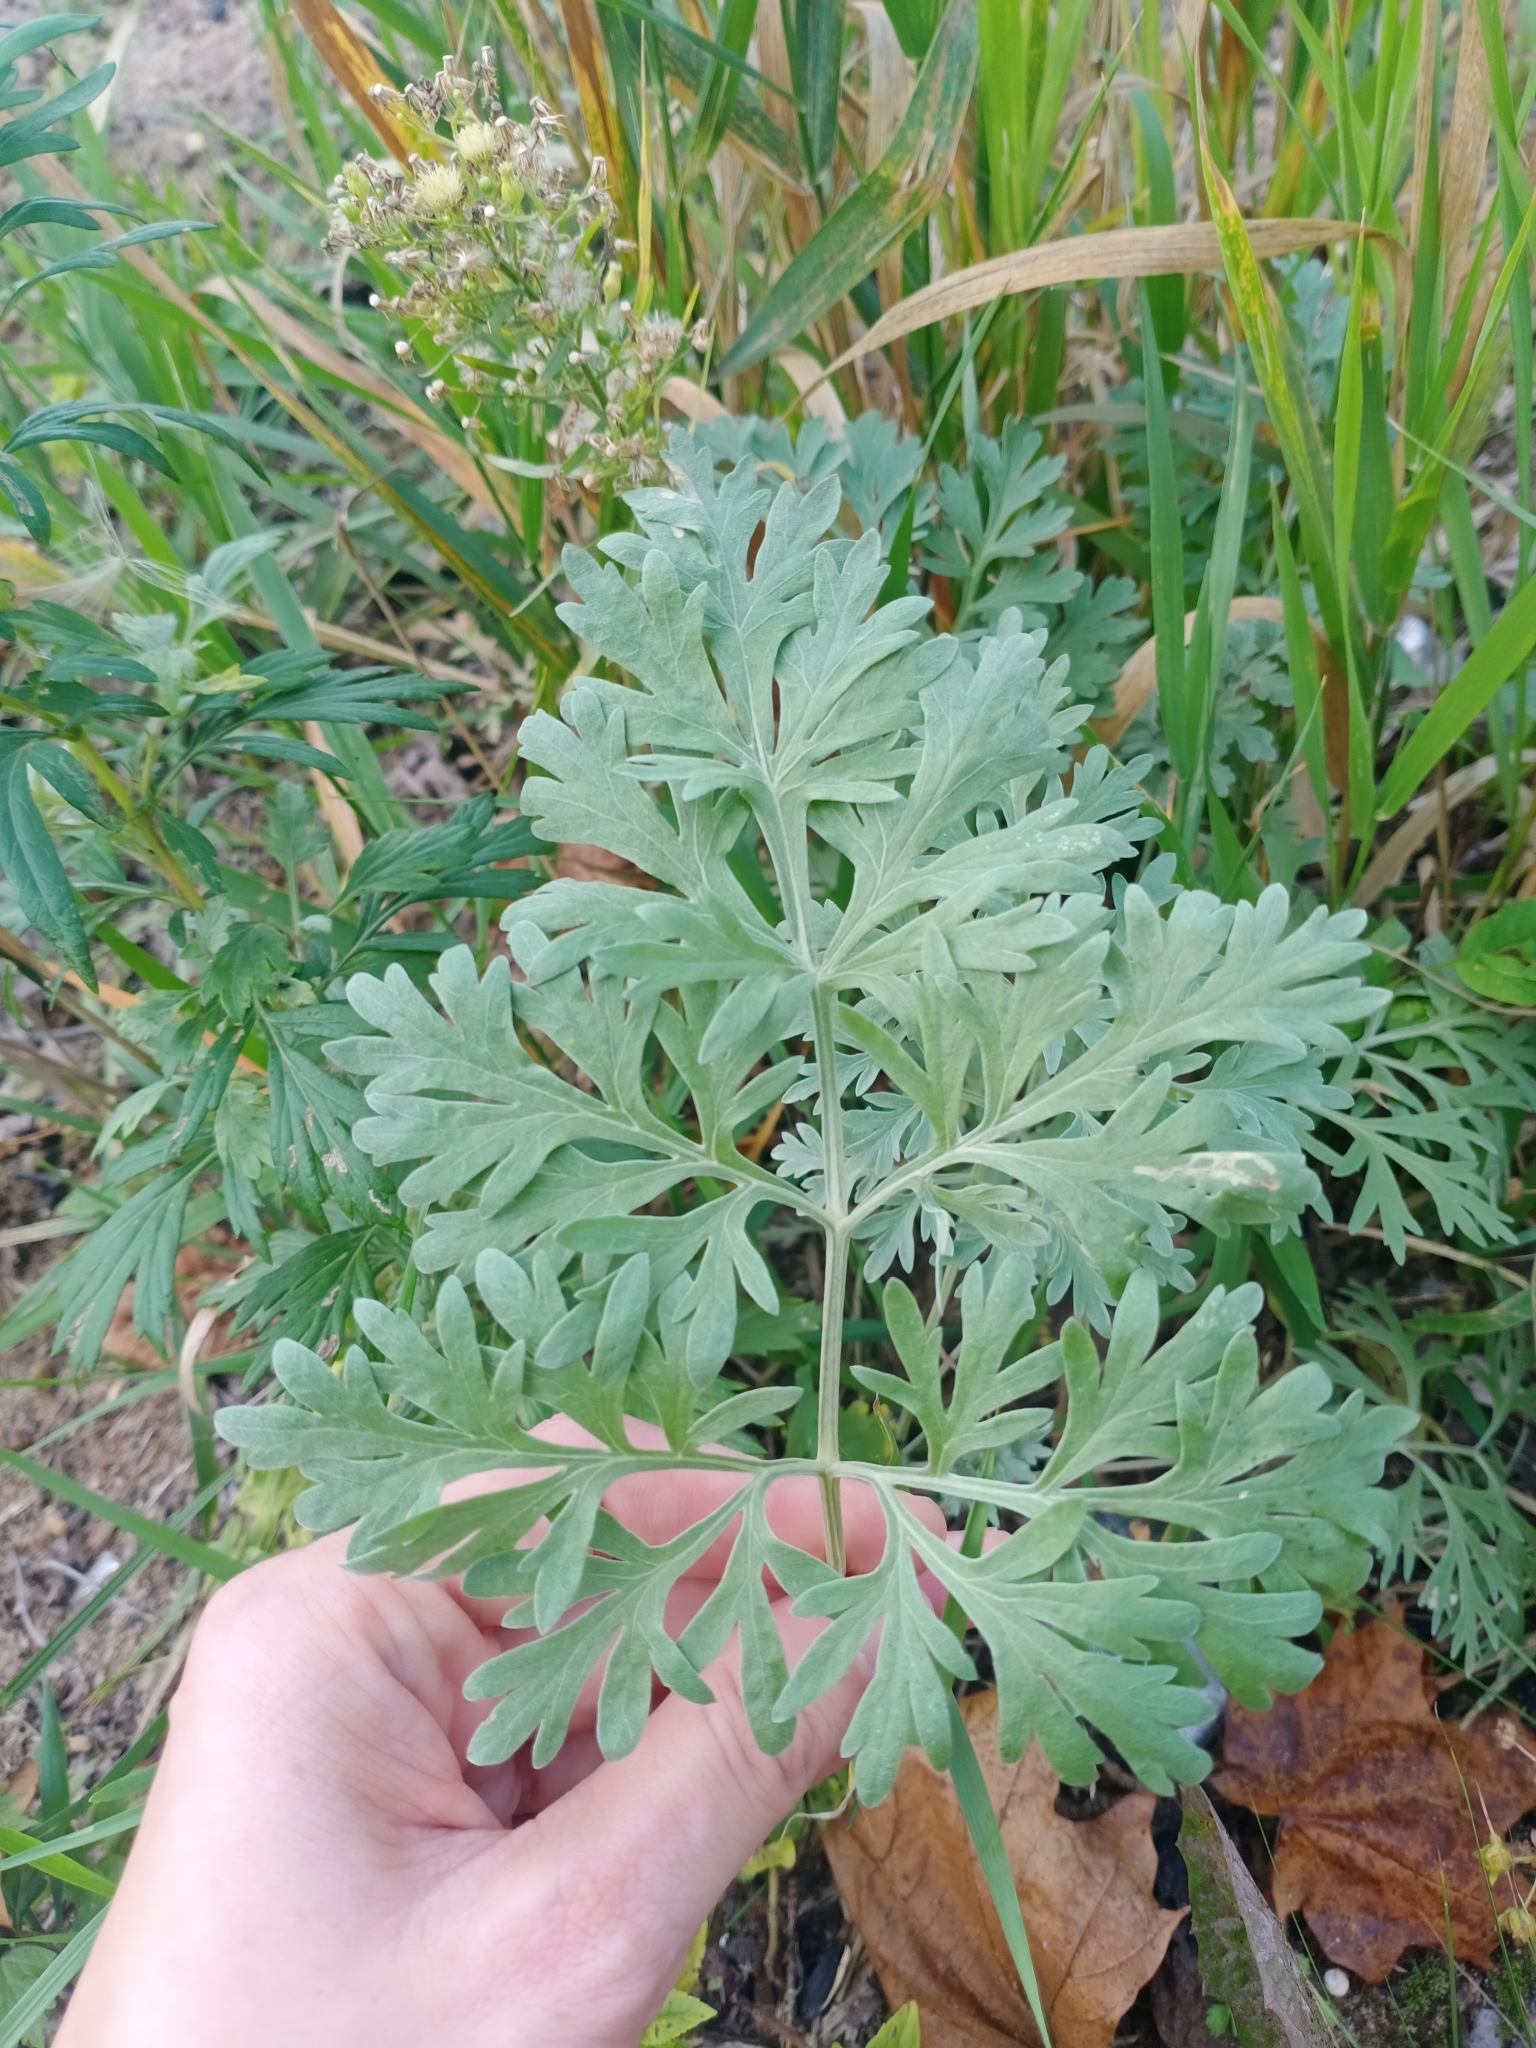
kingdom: Plantae
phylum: Tracheophyta
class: Magnoliopsida
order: Asterales
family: Asteraceae
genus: Artemisia
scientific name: Artemisia absinthium
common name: Wormwood
